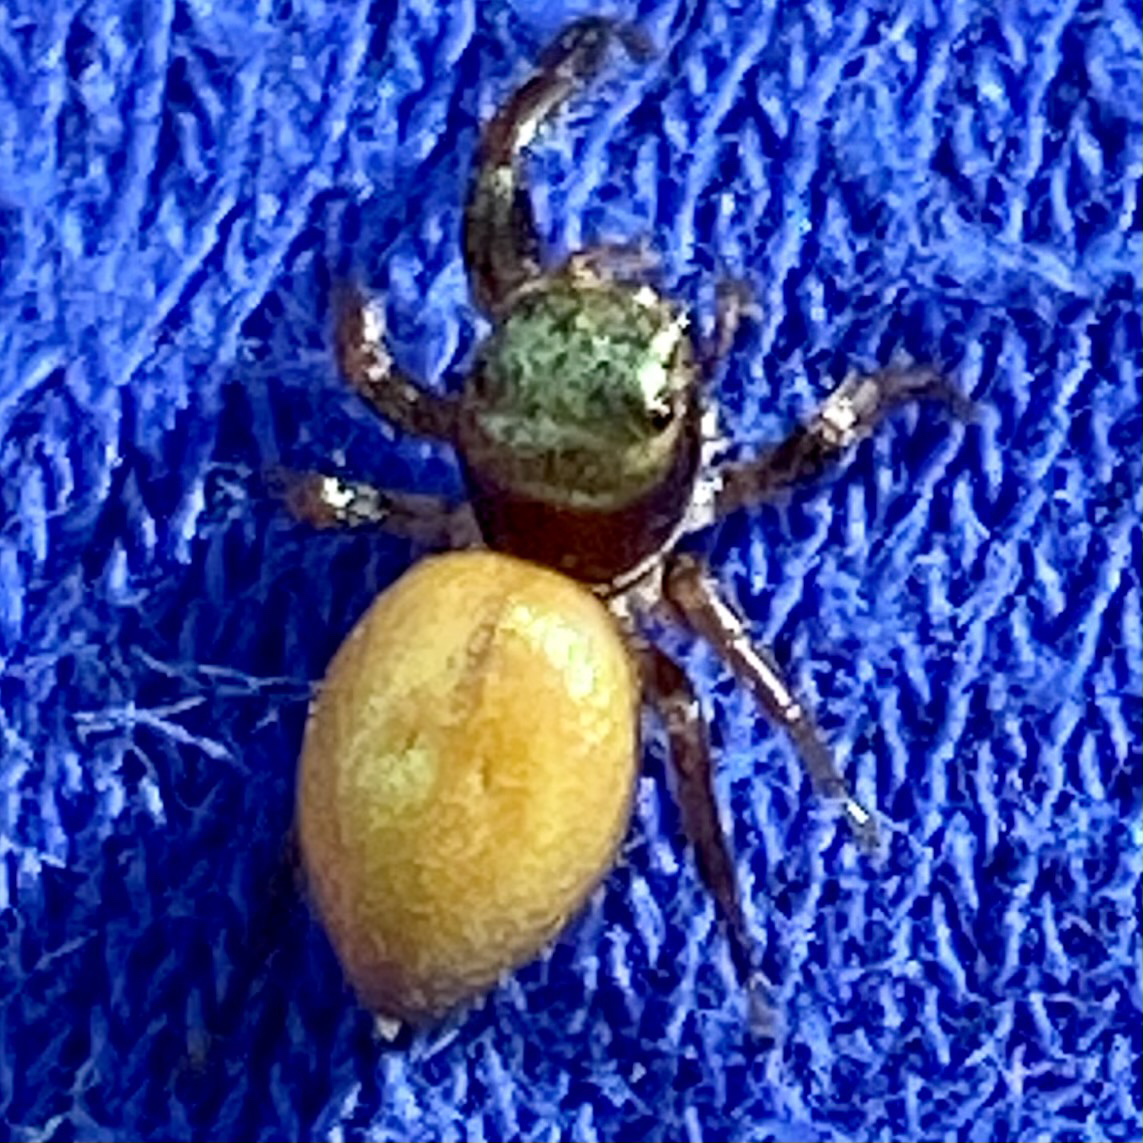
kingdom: Animalia
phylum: Arthropoda
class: Arachnida
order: Araneae
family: Salticidae
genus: Messua
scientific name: Messua limbata
